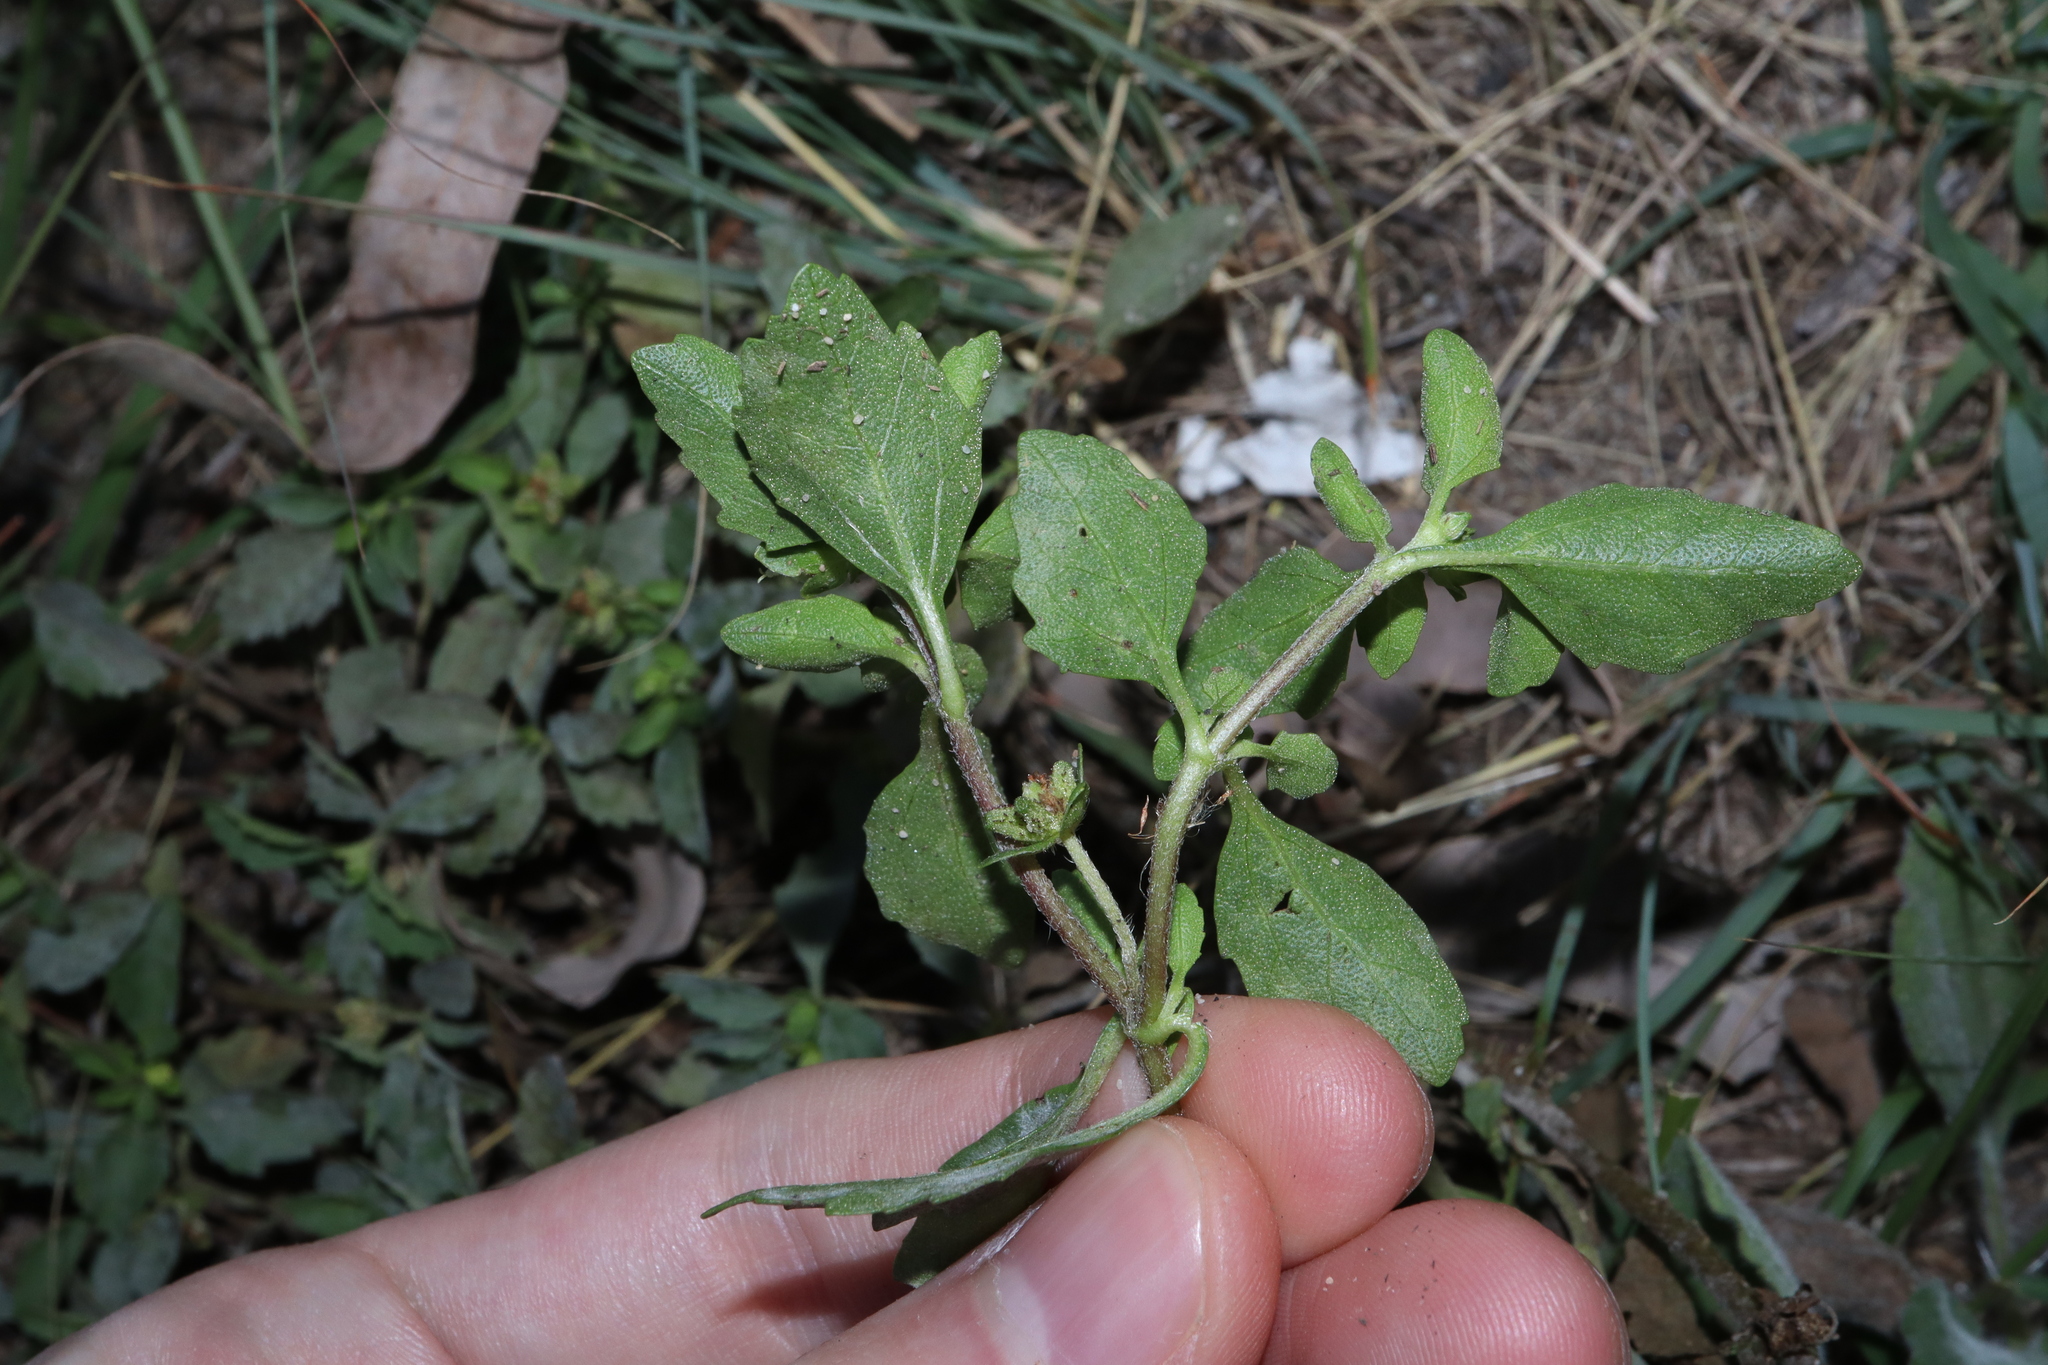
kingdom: Plantae
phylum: Tracheophyta
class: Magnoliopsida
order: Asterales
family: Asteraceae
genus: Acanthospermum
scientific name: Acanthospermum australe
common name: Paraguayan starbur
